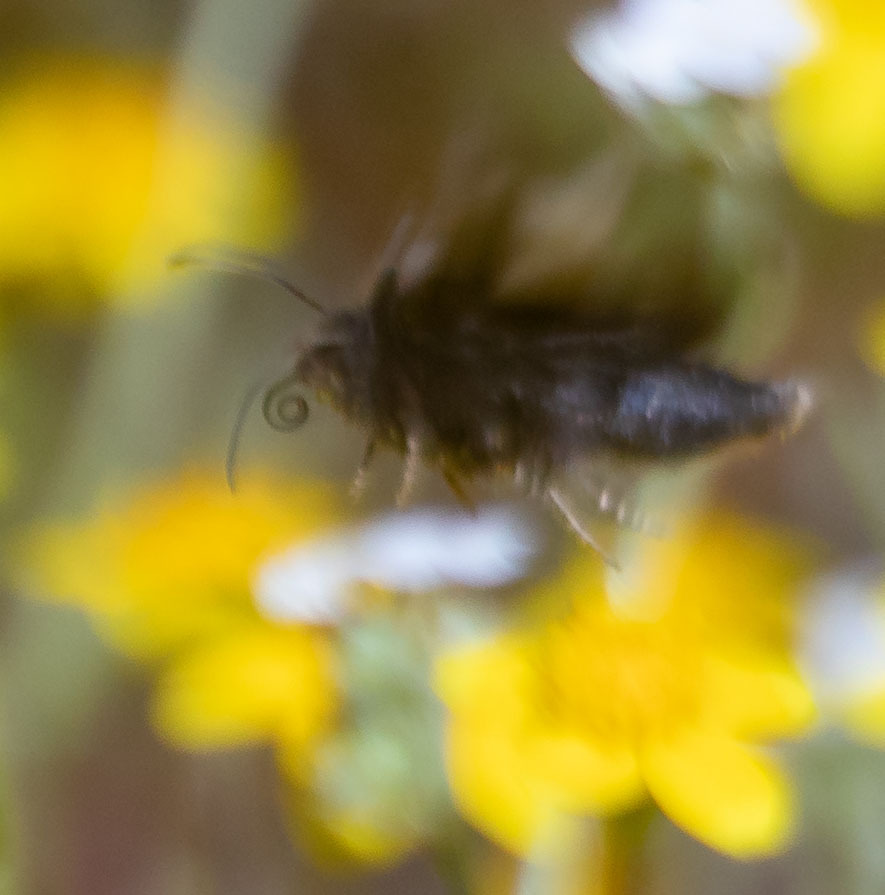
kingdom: Animalia
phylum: Arthropoda
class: Insecta
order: Lepidoptera
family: Noctuidae
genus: Stylopoda
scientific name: Stylopoda cephalica
